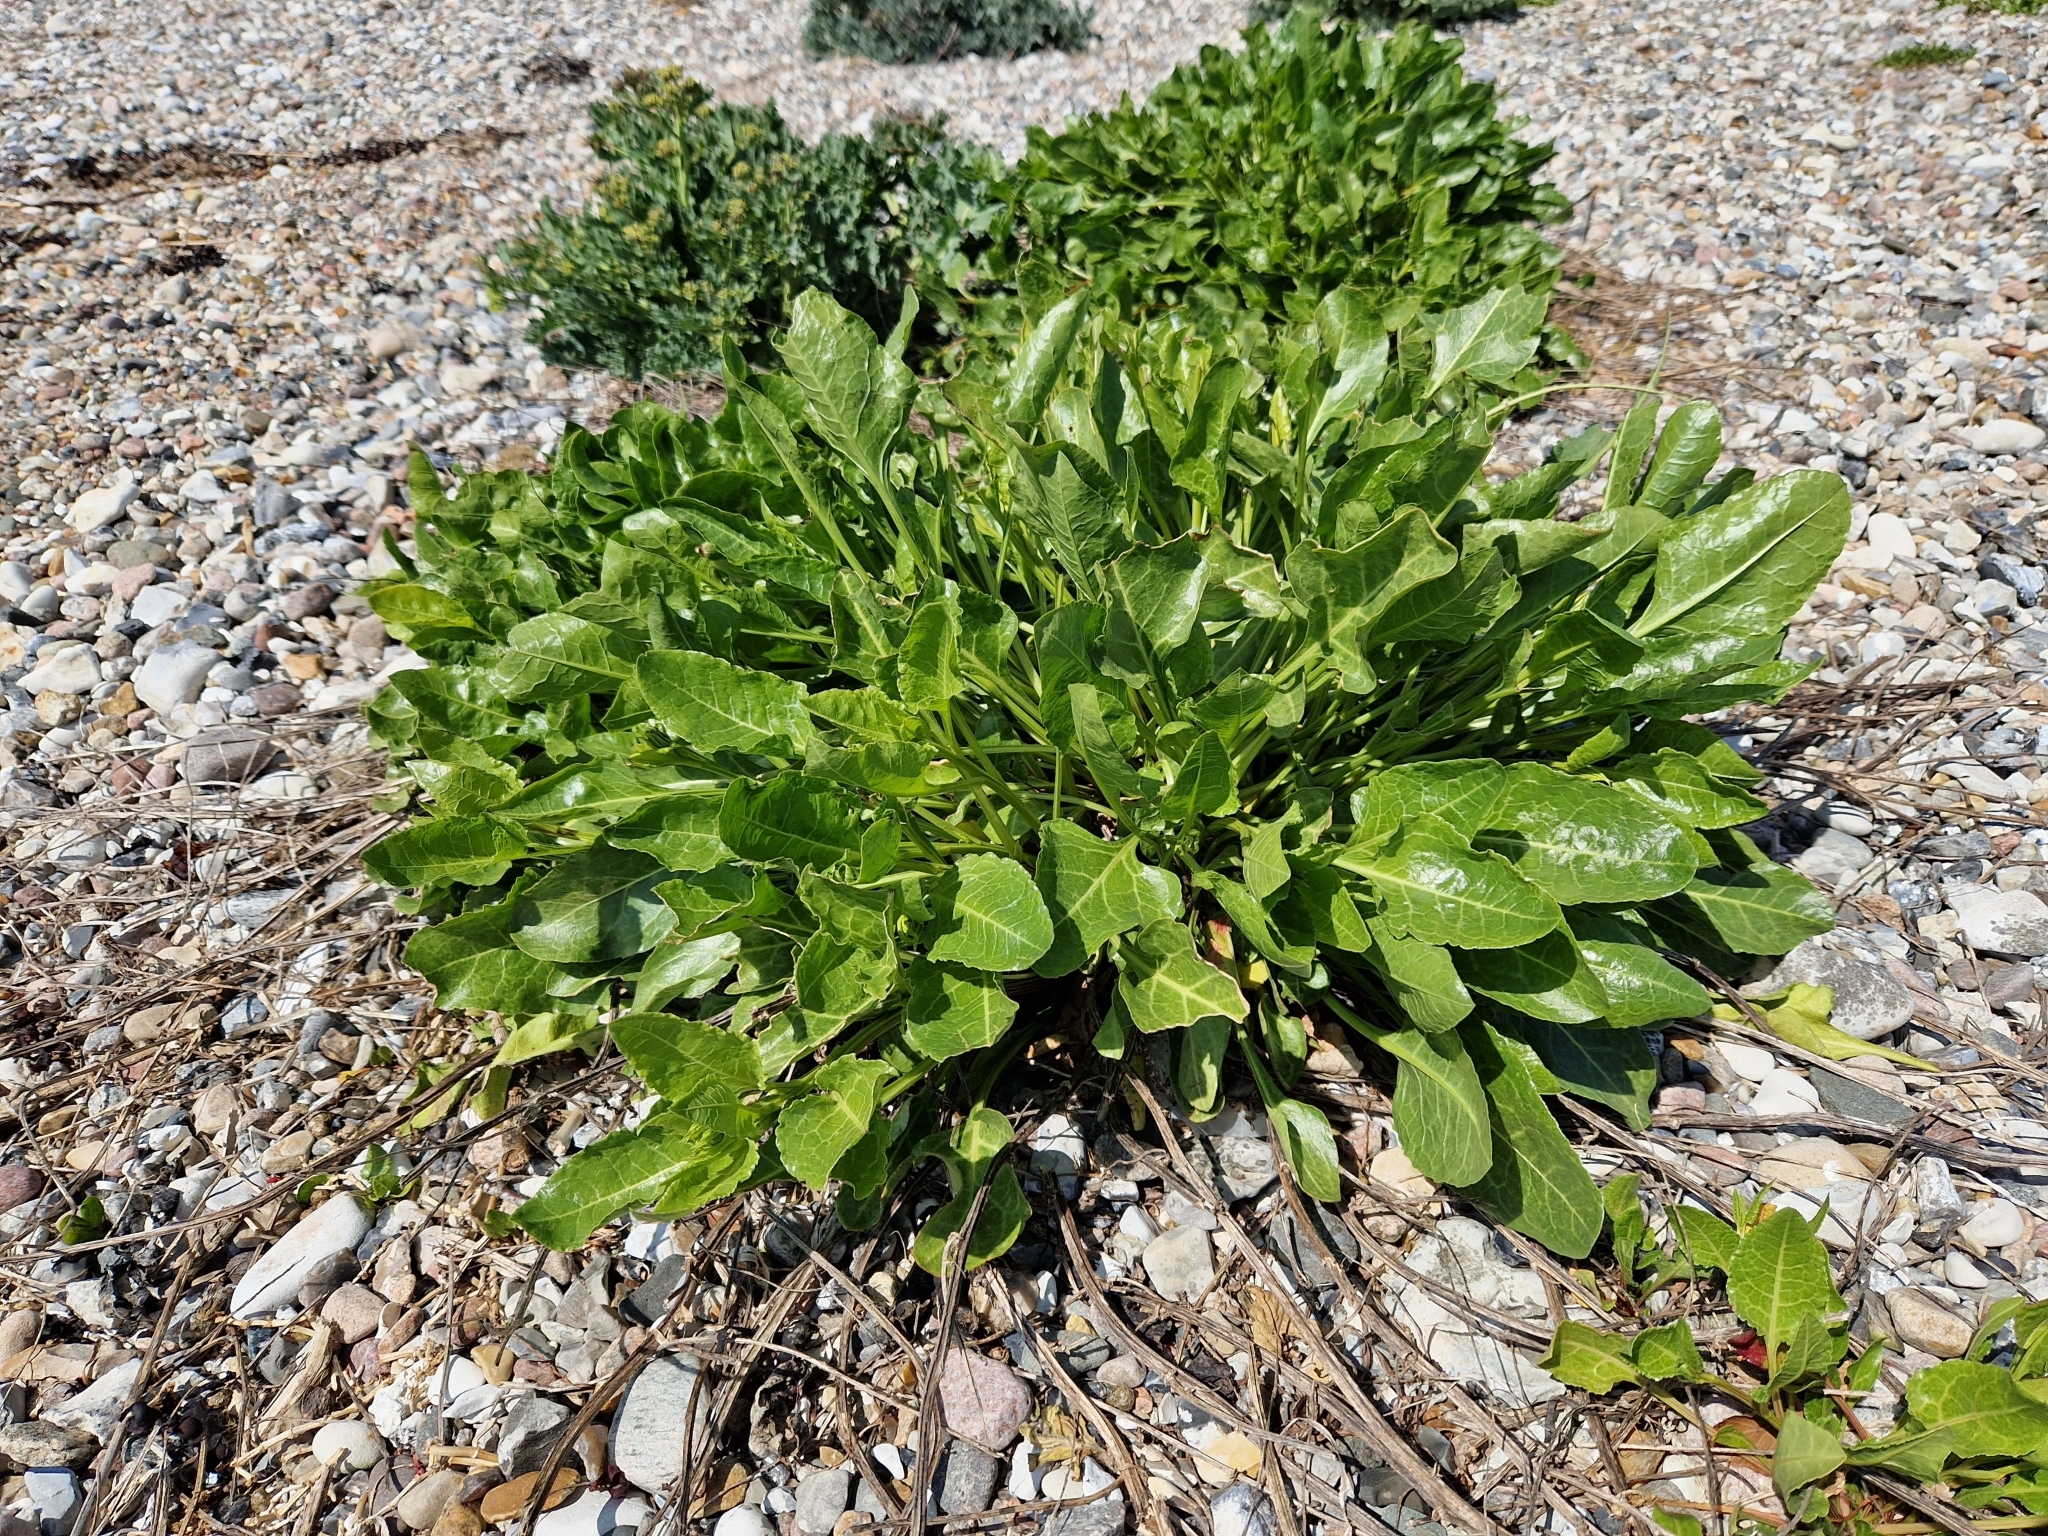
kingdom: Plantae
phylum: Tracheophyta
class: Magnoliopsida
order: Caryophyllales
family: Amaranthaceae
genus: Beta
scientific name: Beta vulgaris
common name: Beet
